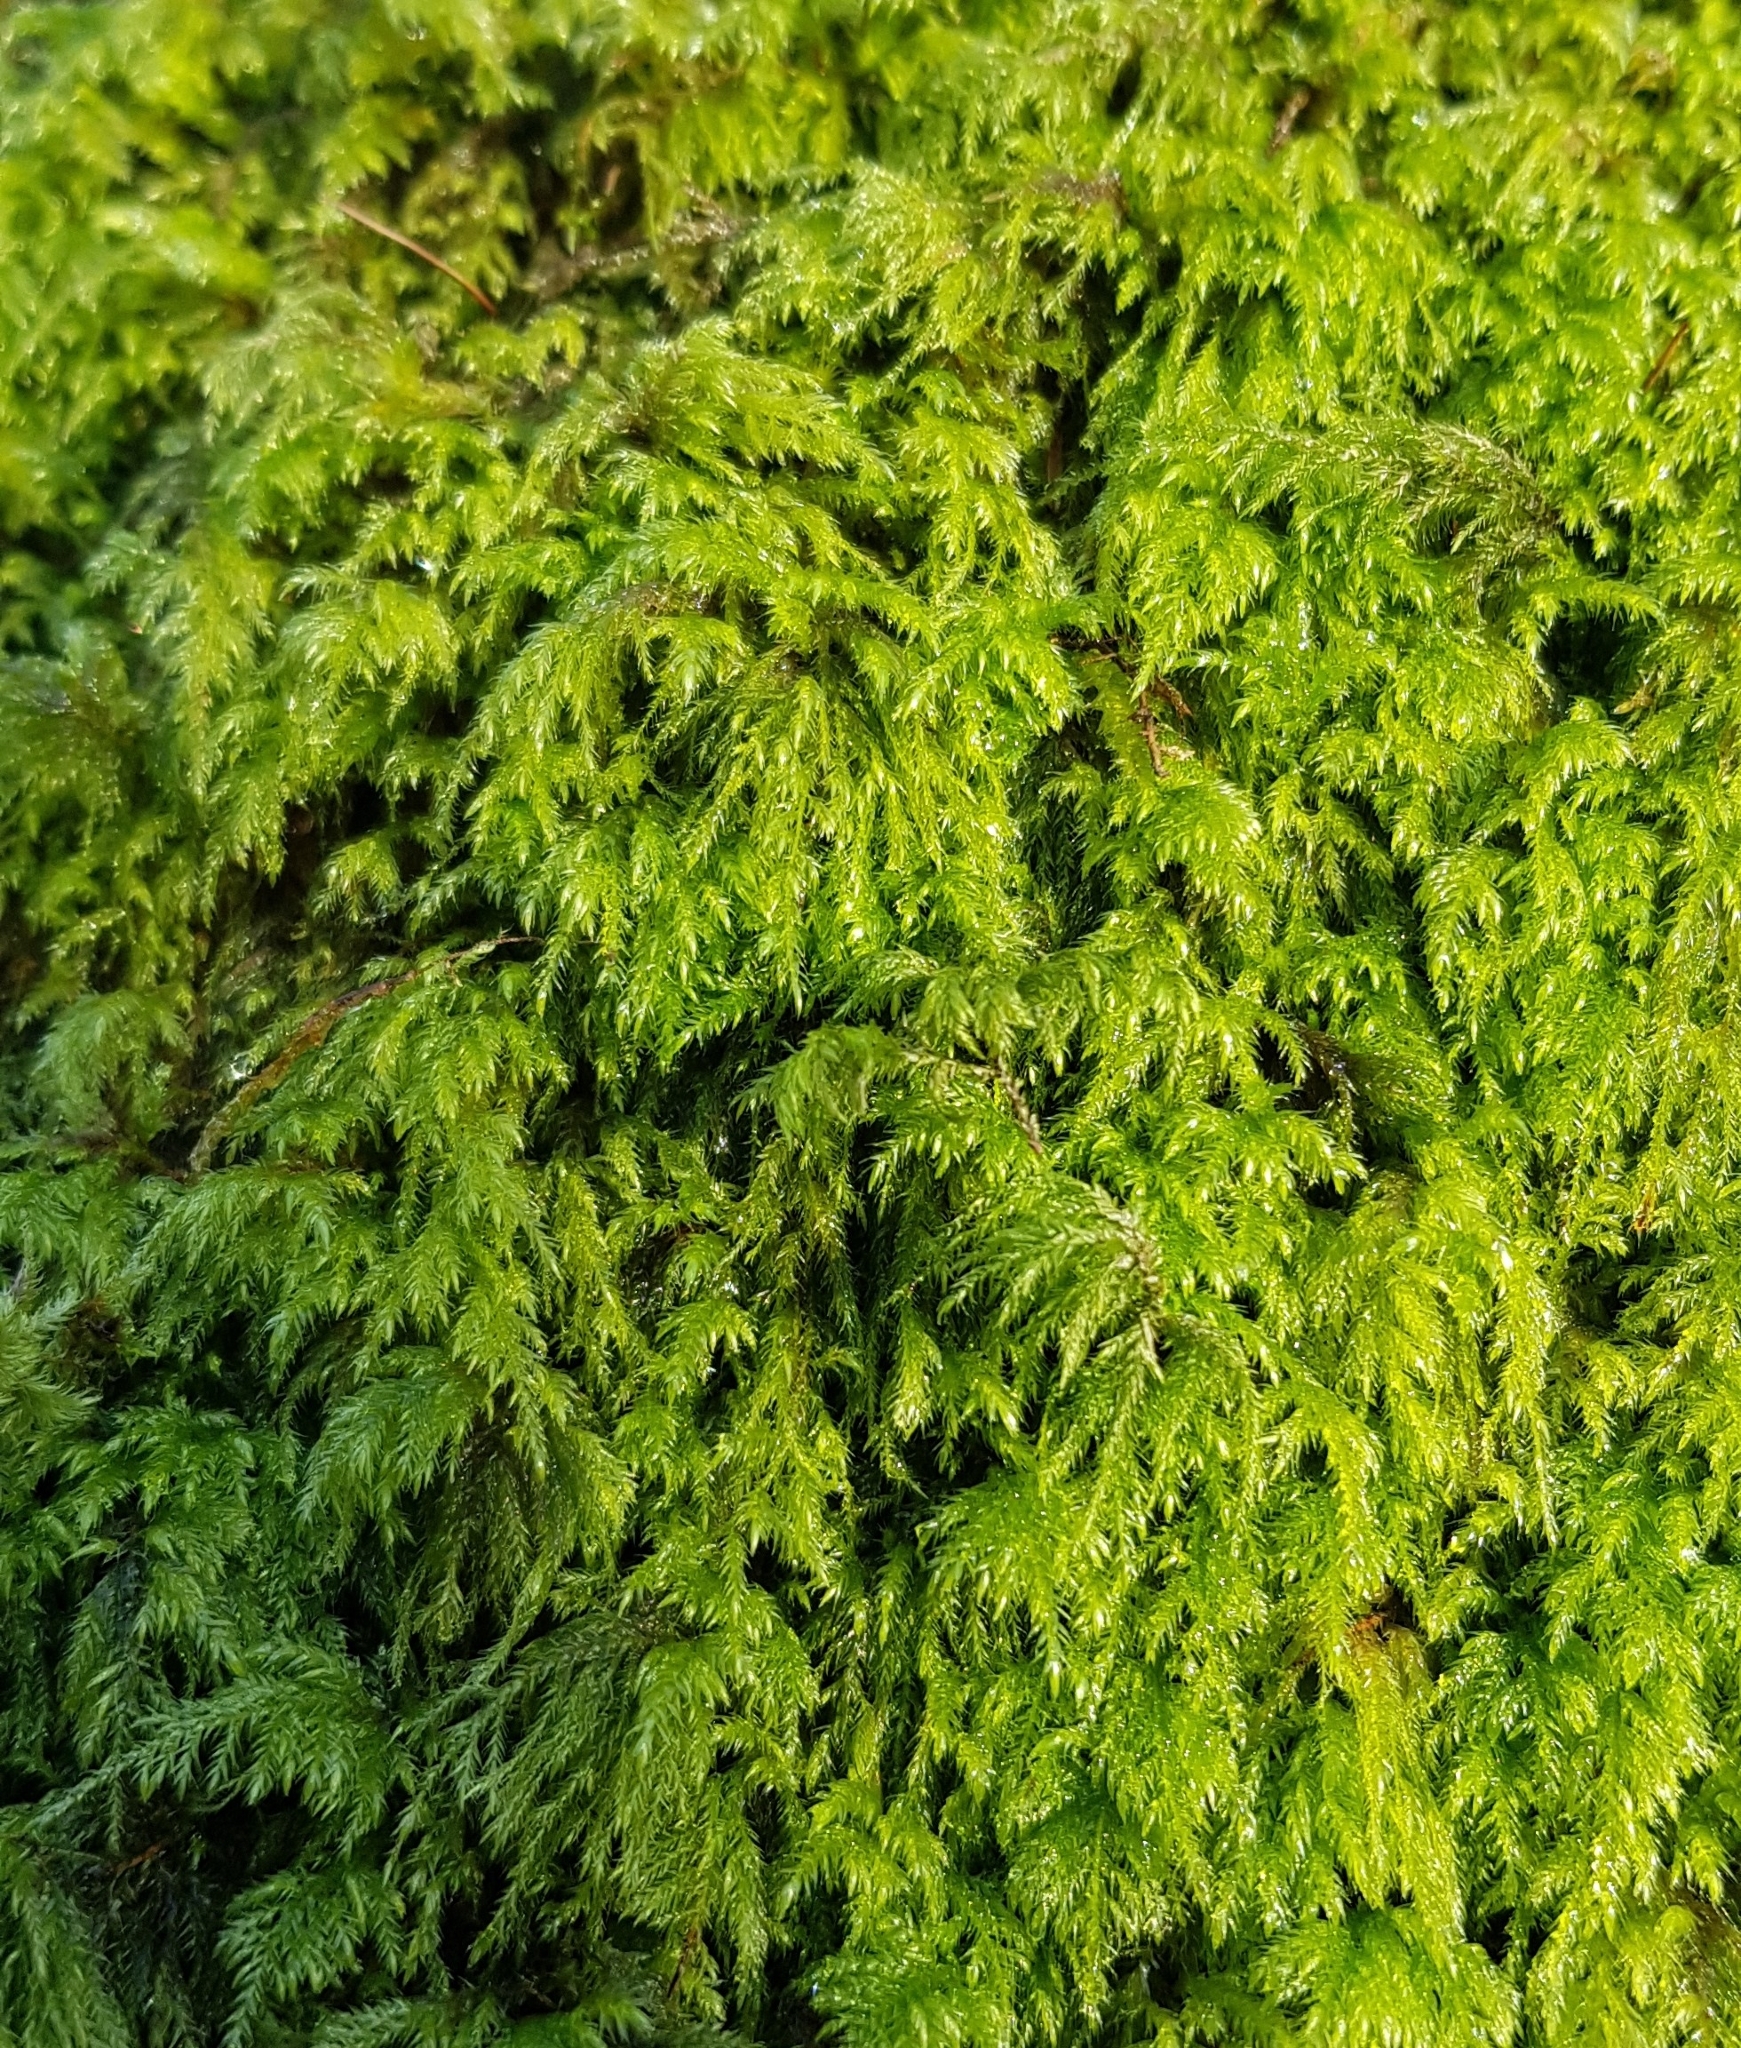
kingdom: Plantae
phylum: Bryophyta
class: Bryopsida
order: Hypnales
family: Lembophyllaceae
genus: Pseudisothecium
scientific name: Pseudisothecium myosuroides
